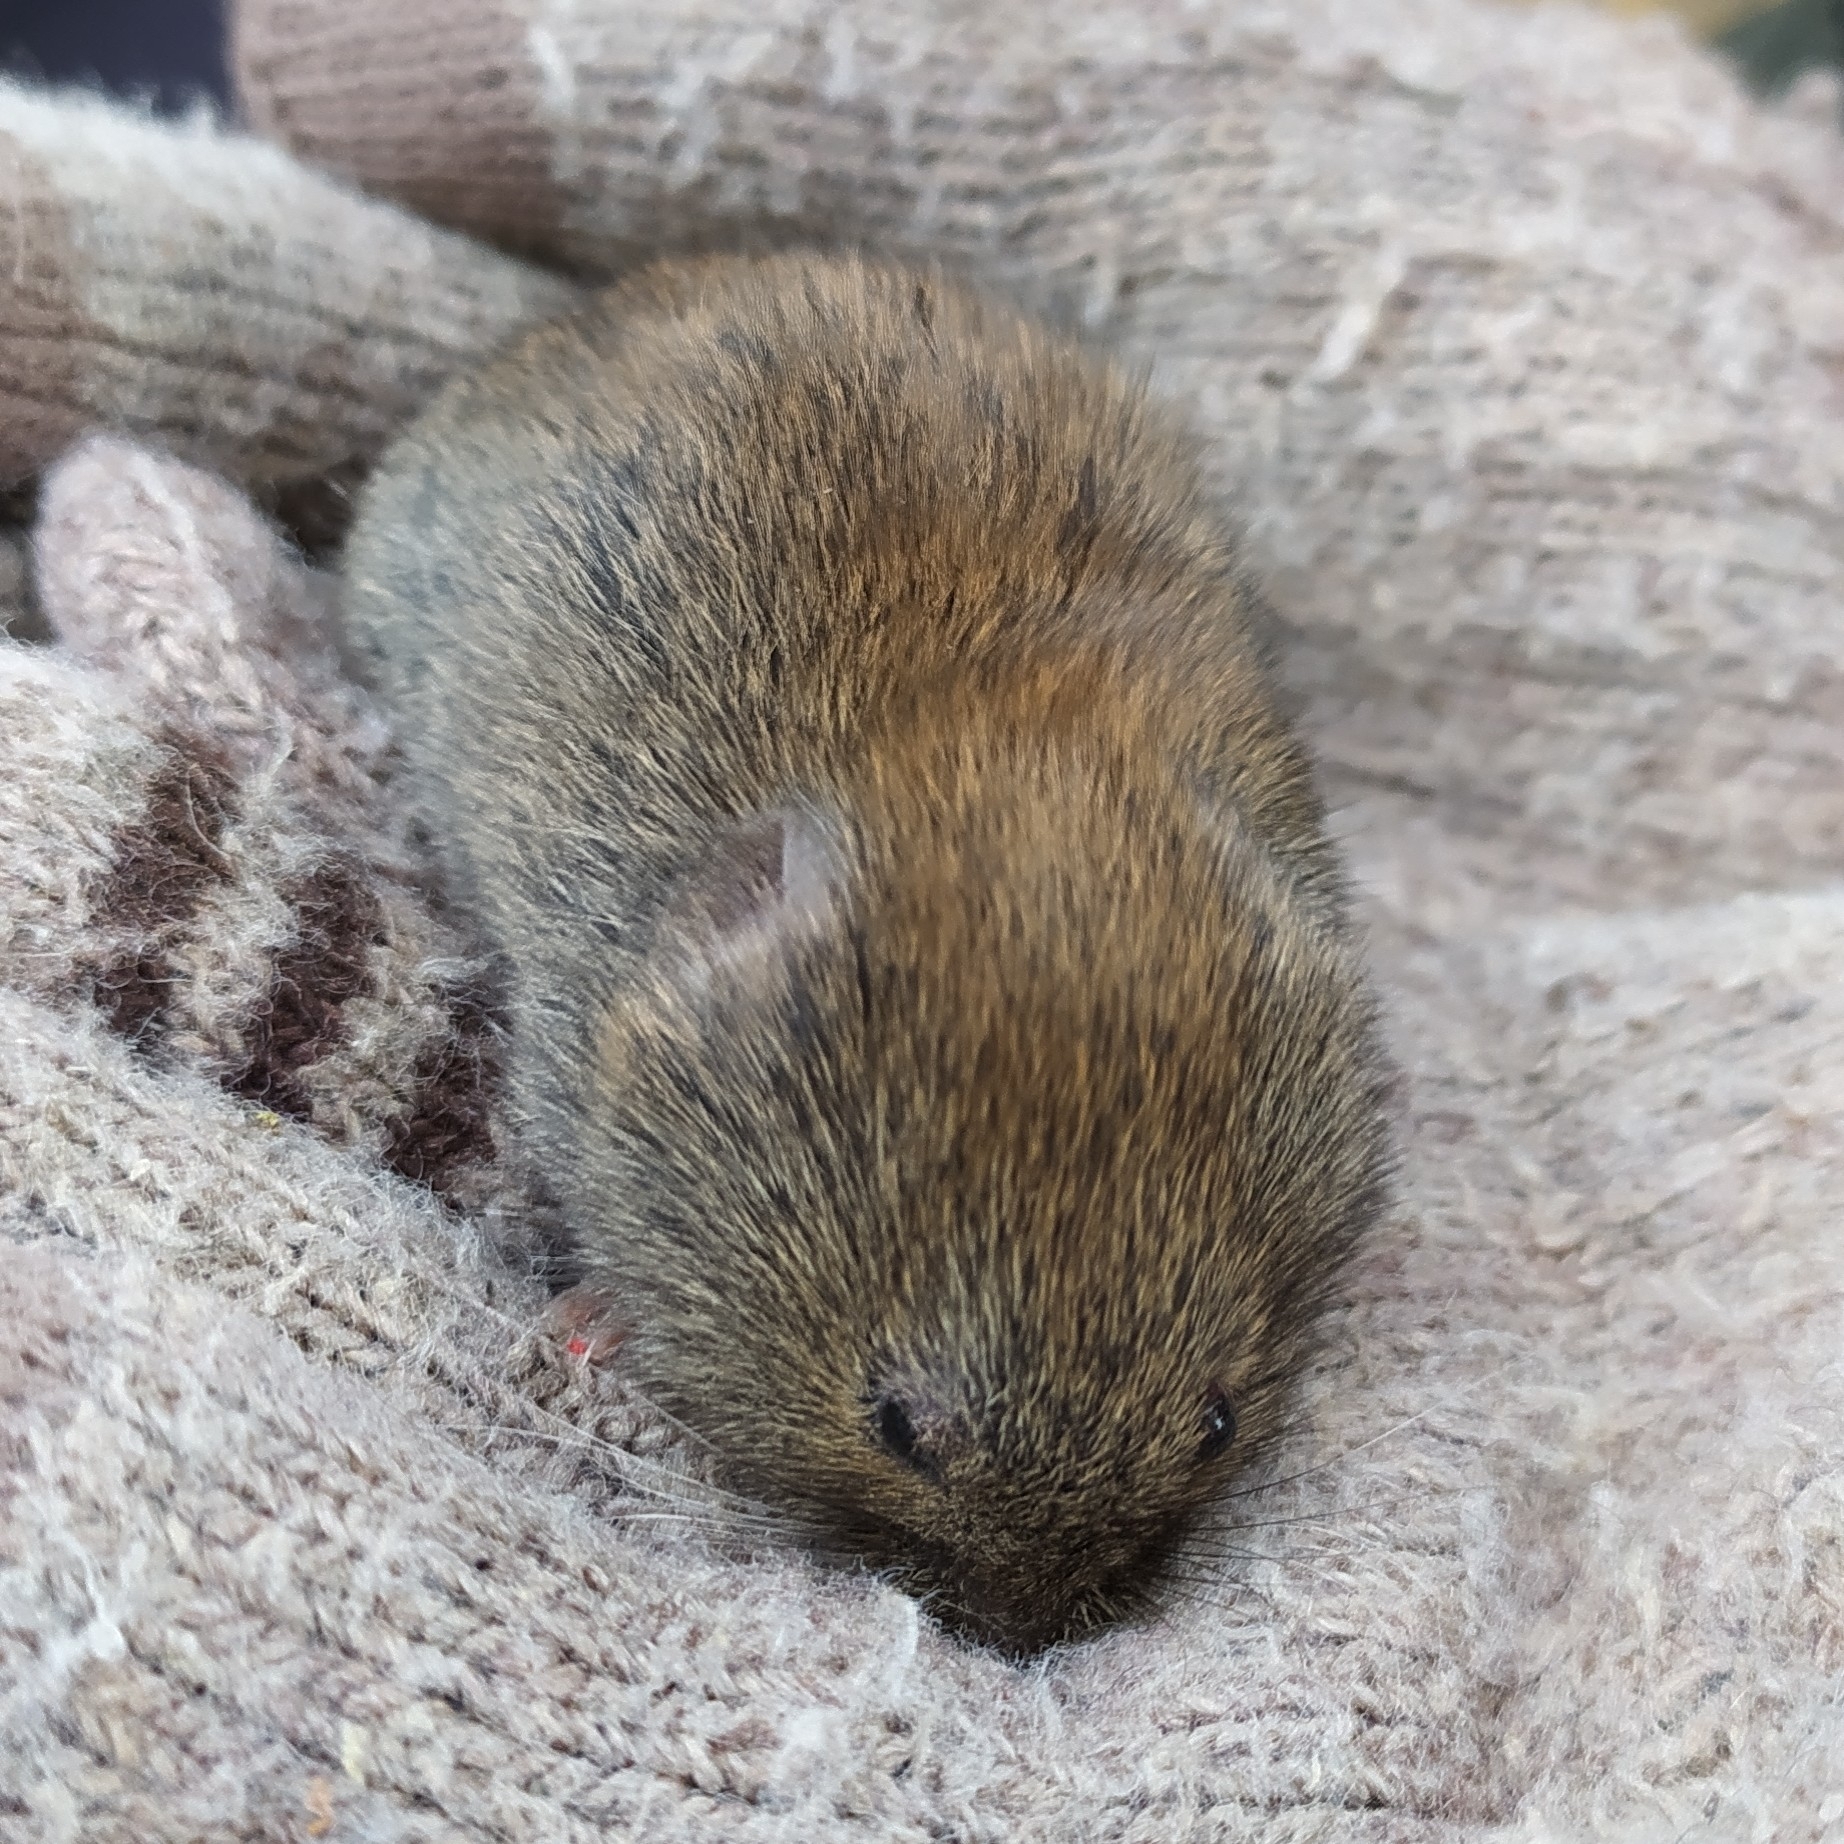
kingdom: Animalia
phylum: Chordata
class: Mammalia
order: Rodentia
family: Cricetidae
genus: Myodes
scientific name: Myodes rufocanus
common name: Gray red-backed vole
